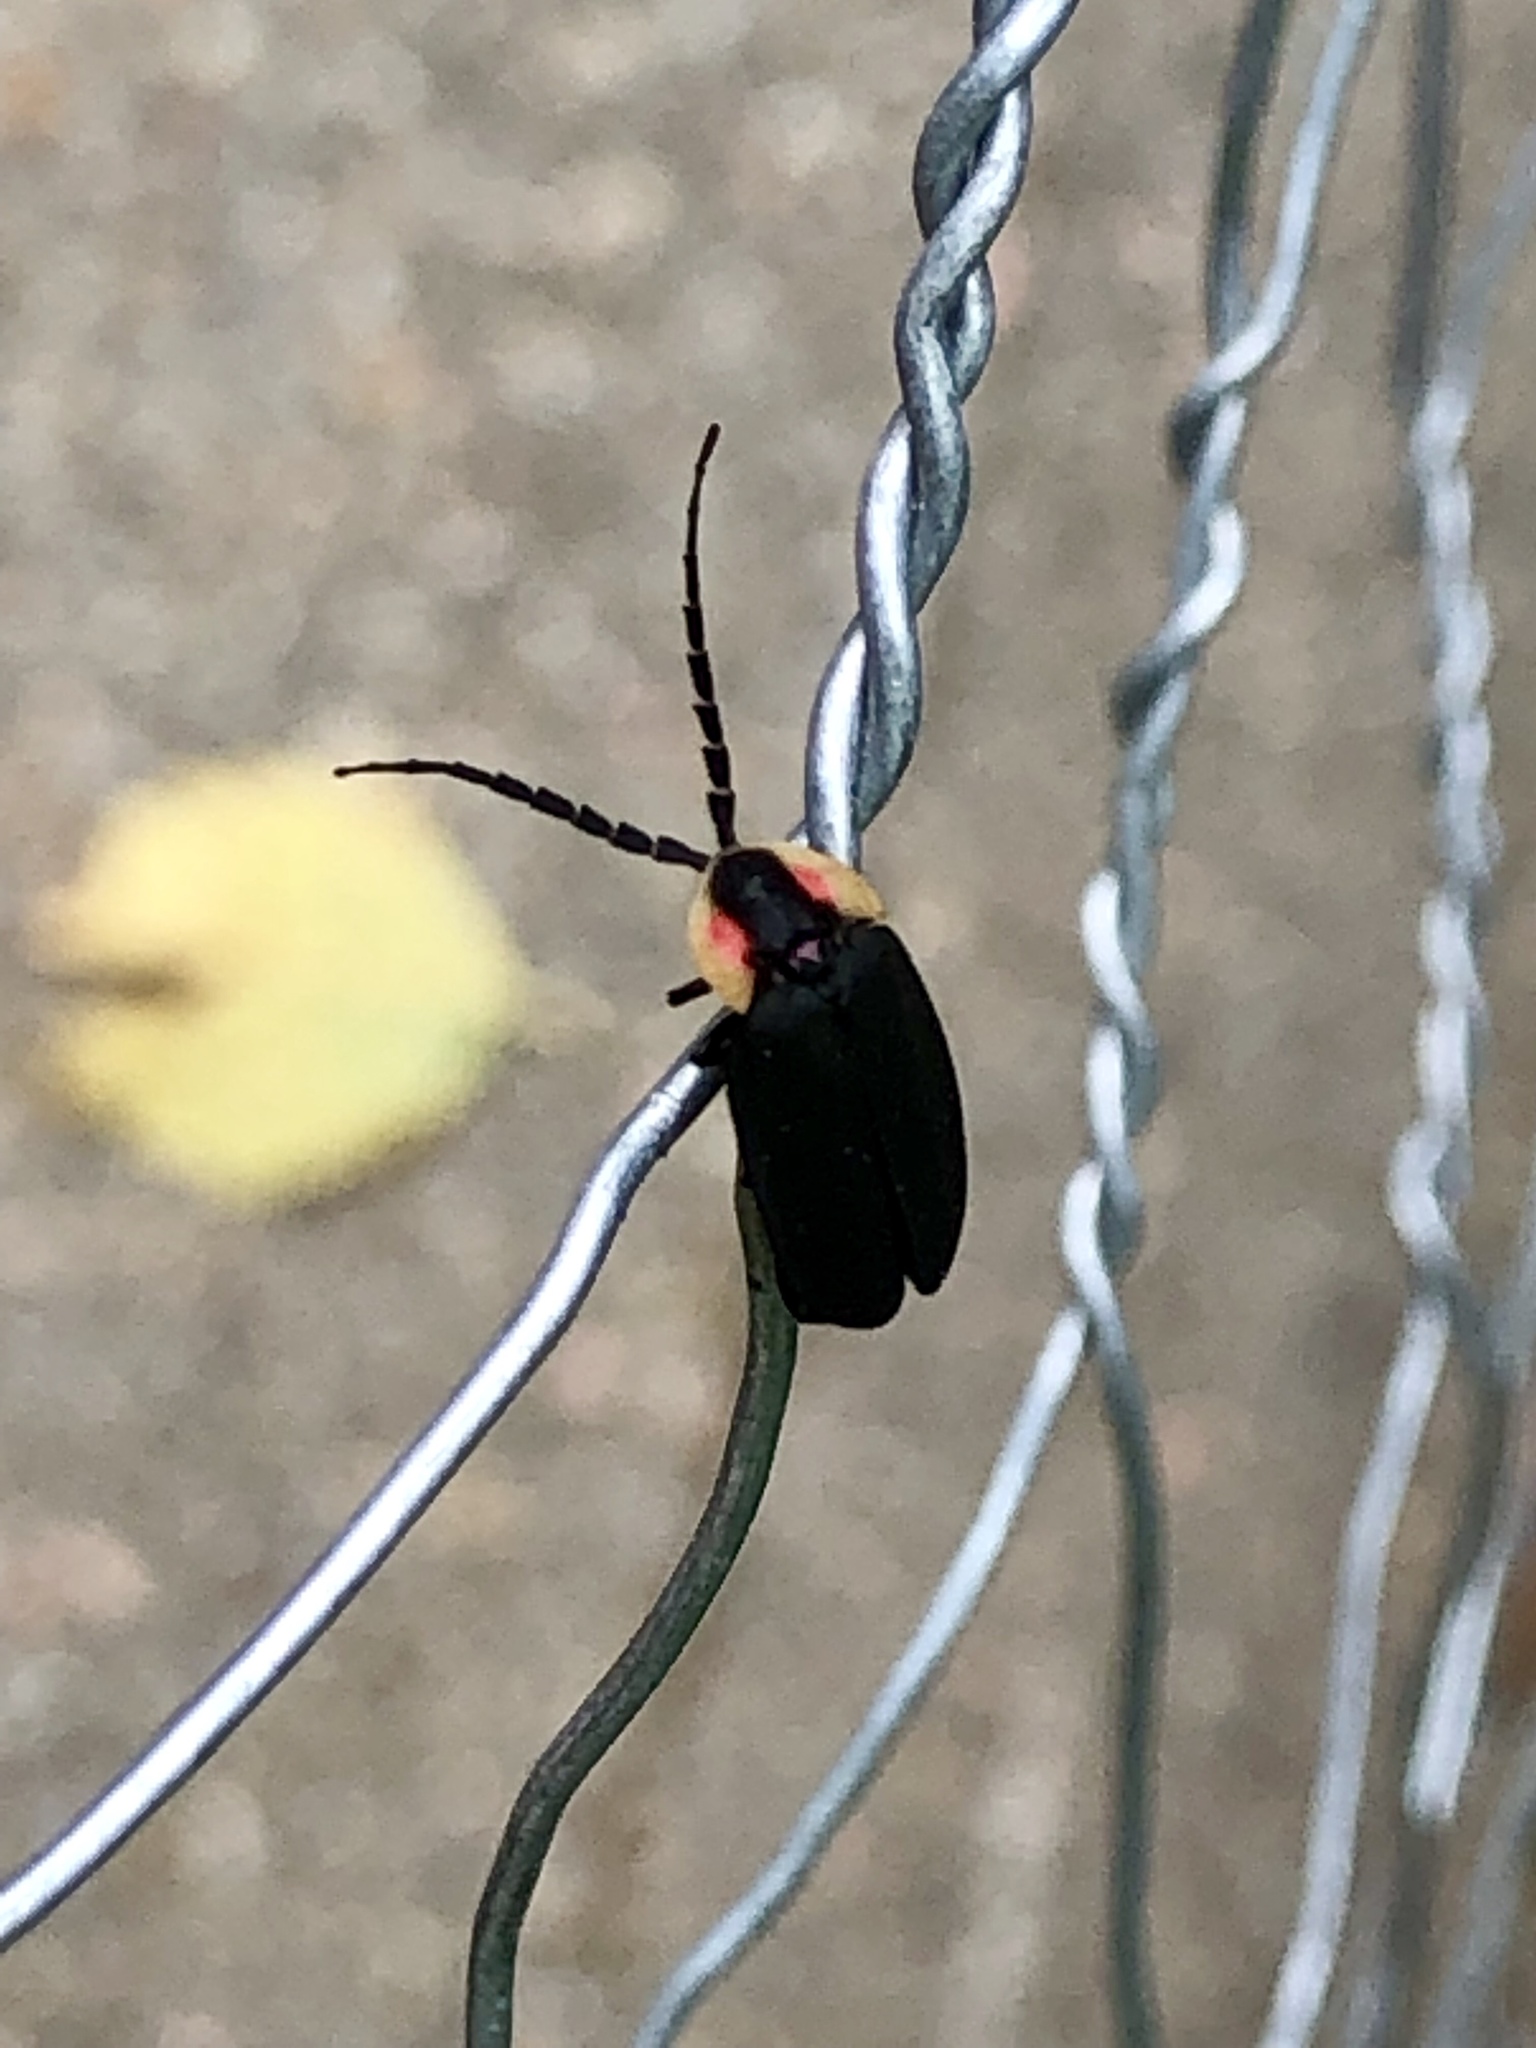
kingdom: Animalia
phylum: Arthropoda
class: Insecta
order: Coleoptera
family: Lampyridae
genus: Lucidota
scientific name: Lucidota atra
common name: Black firefly
